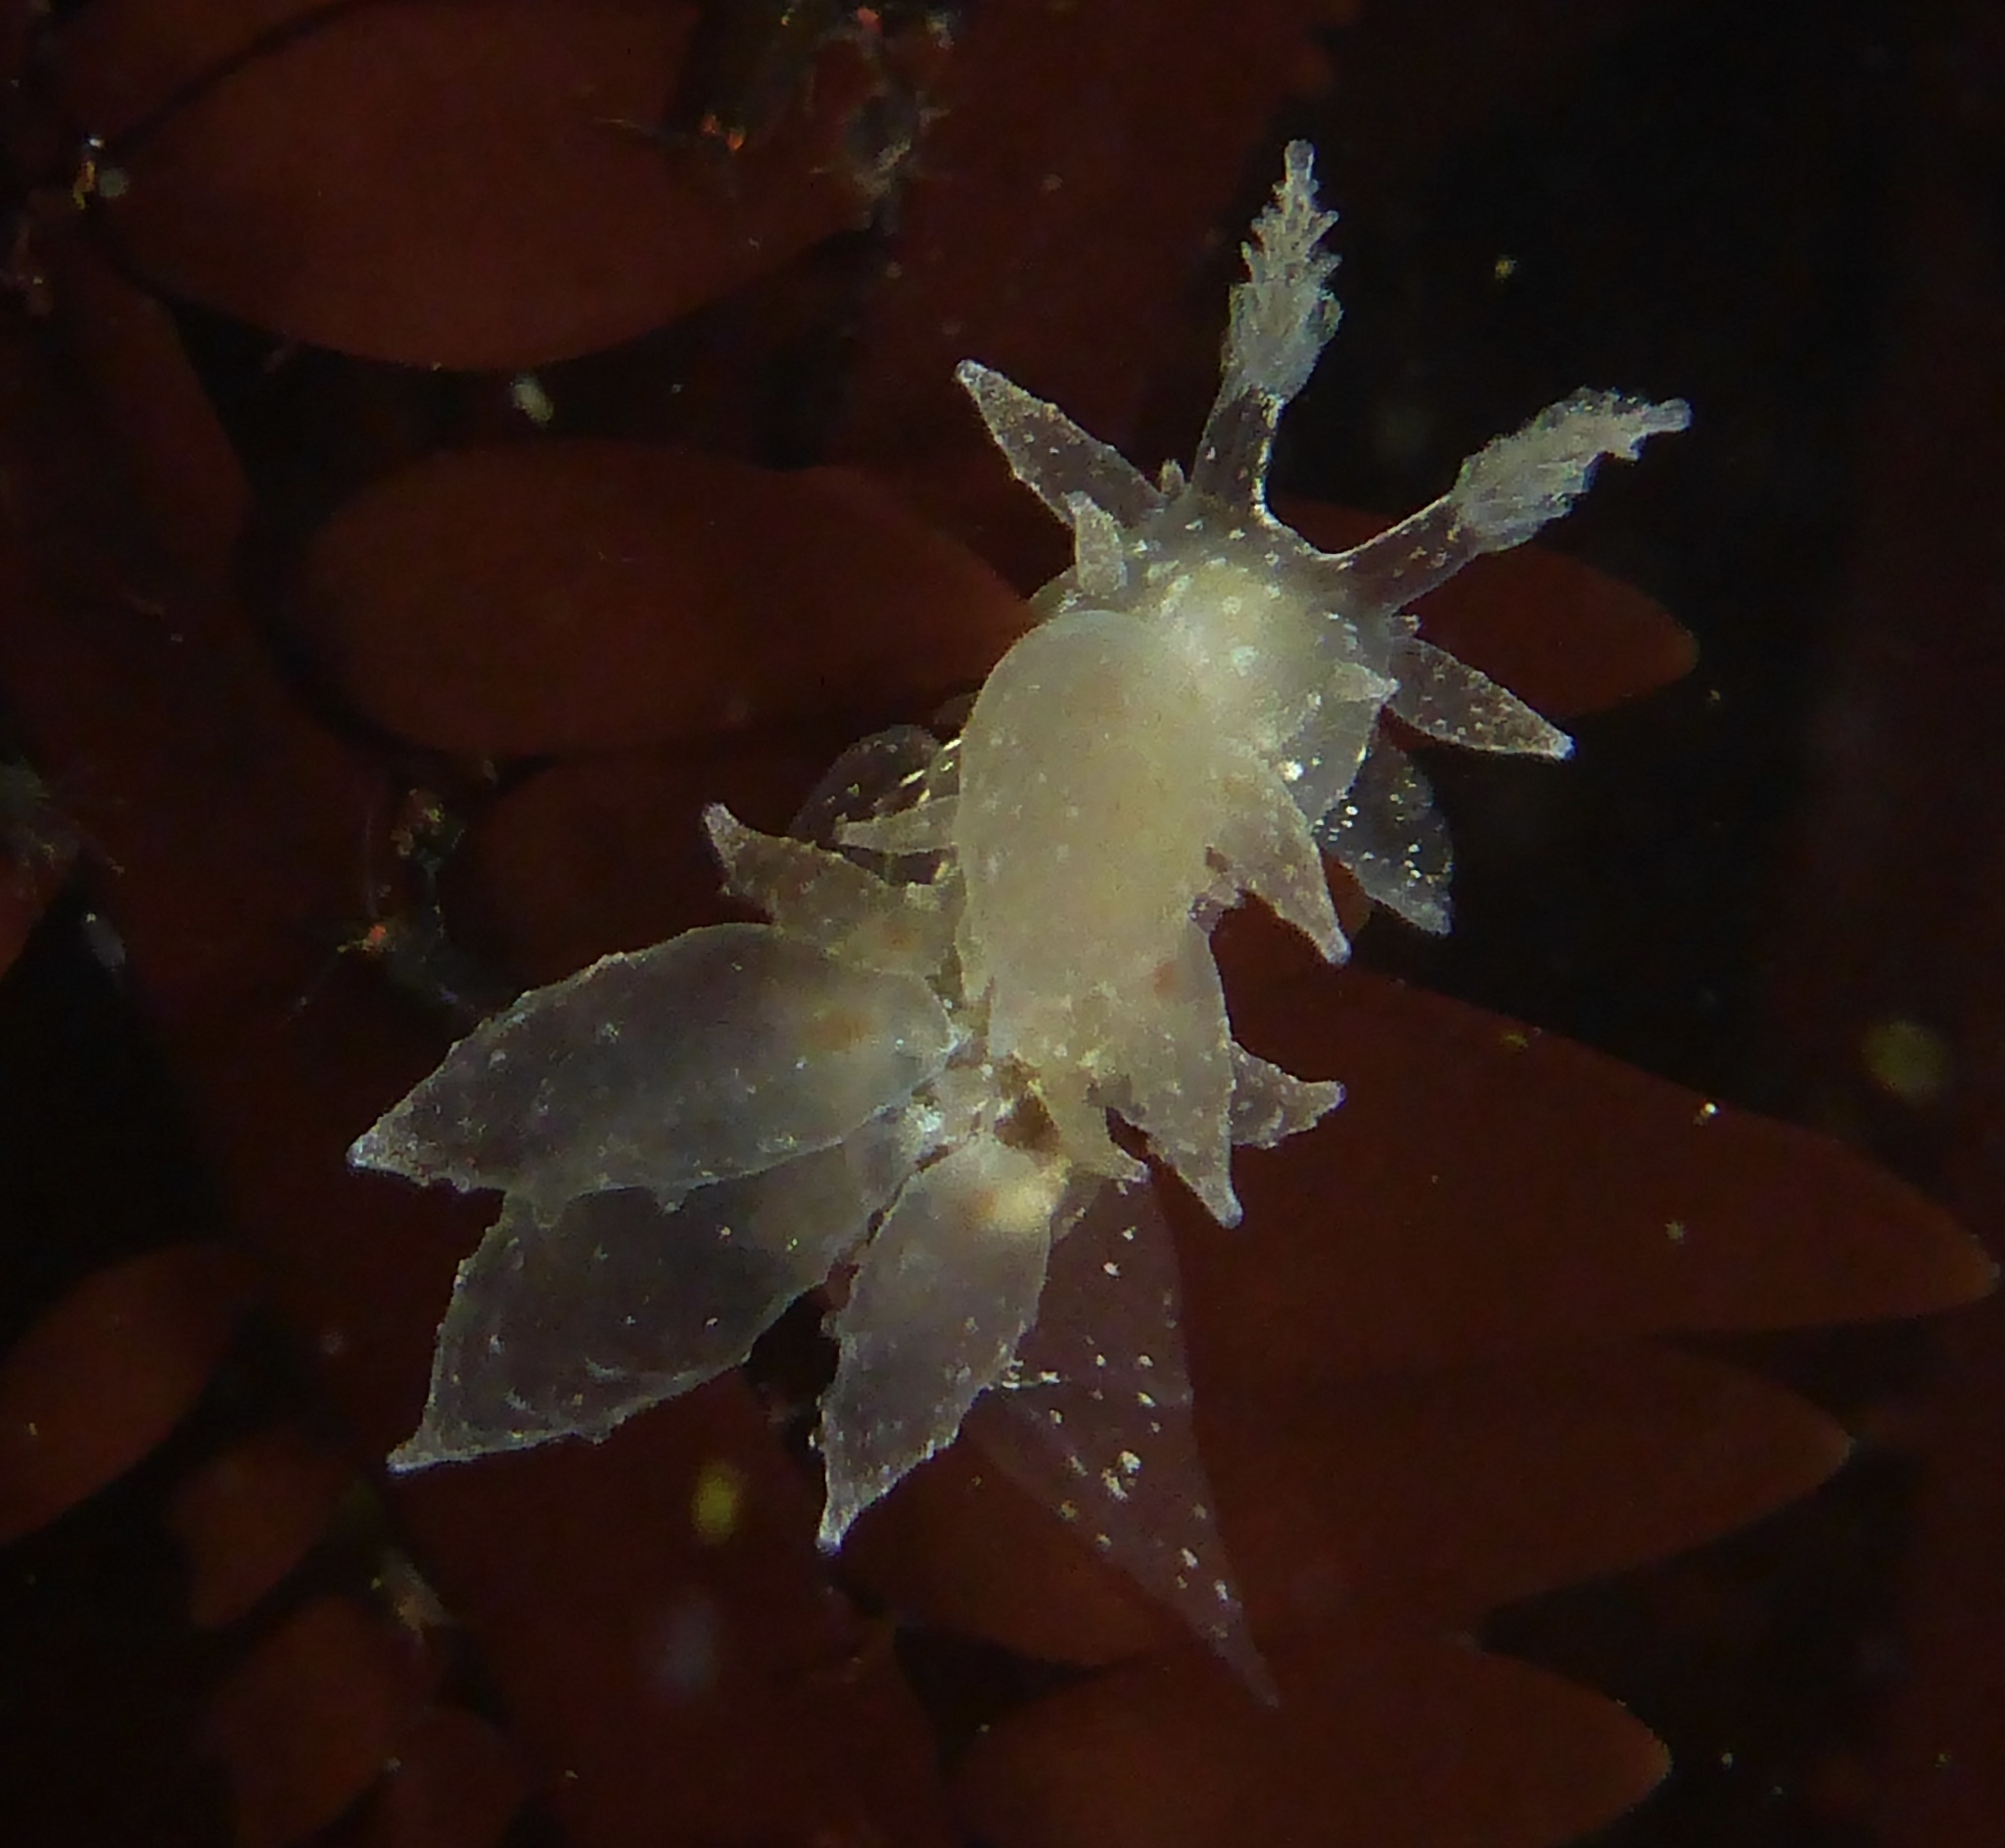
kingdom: Animalia
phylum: Mollusca
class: Gastropoda
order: Nudibranchia
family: Dironidae
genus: Dirona
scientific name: Dirona picta
